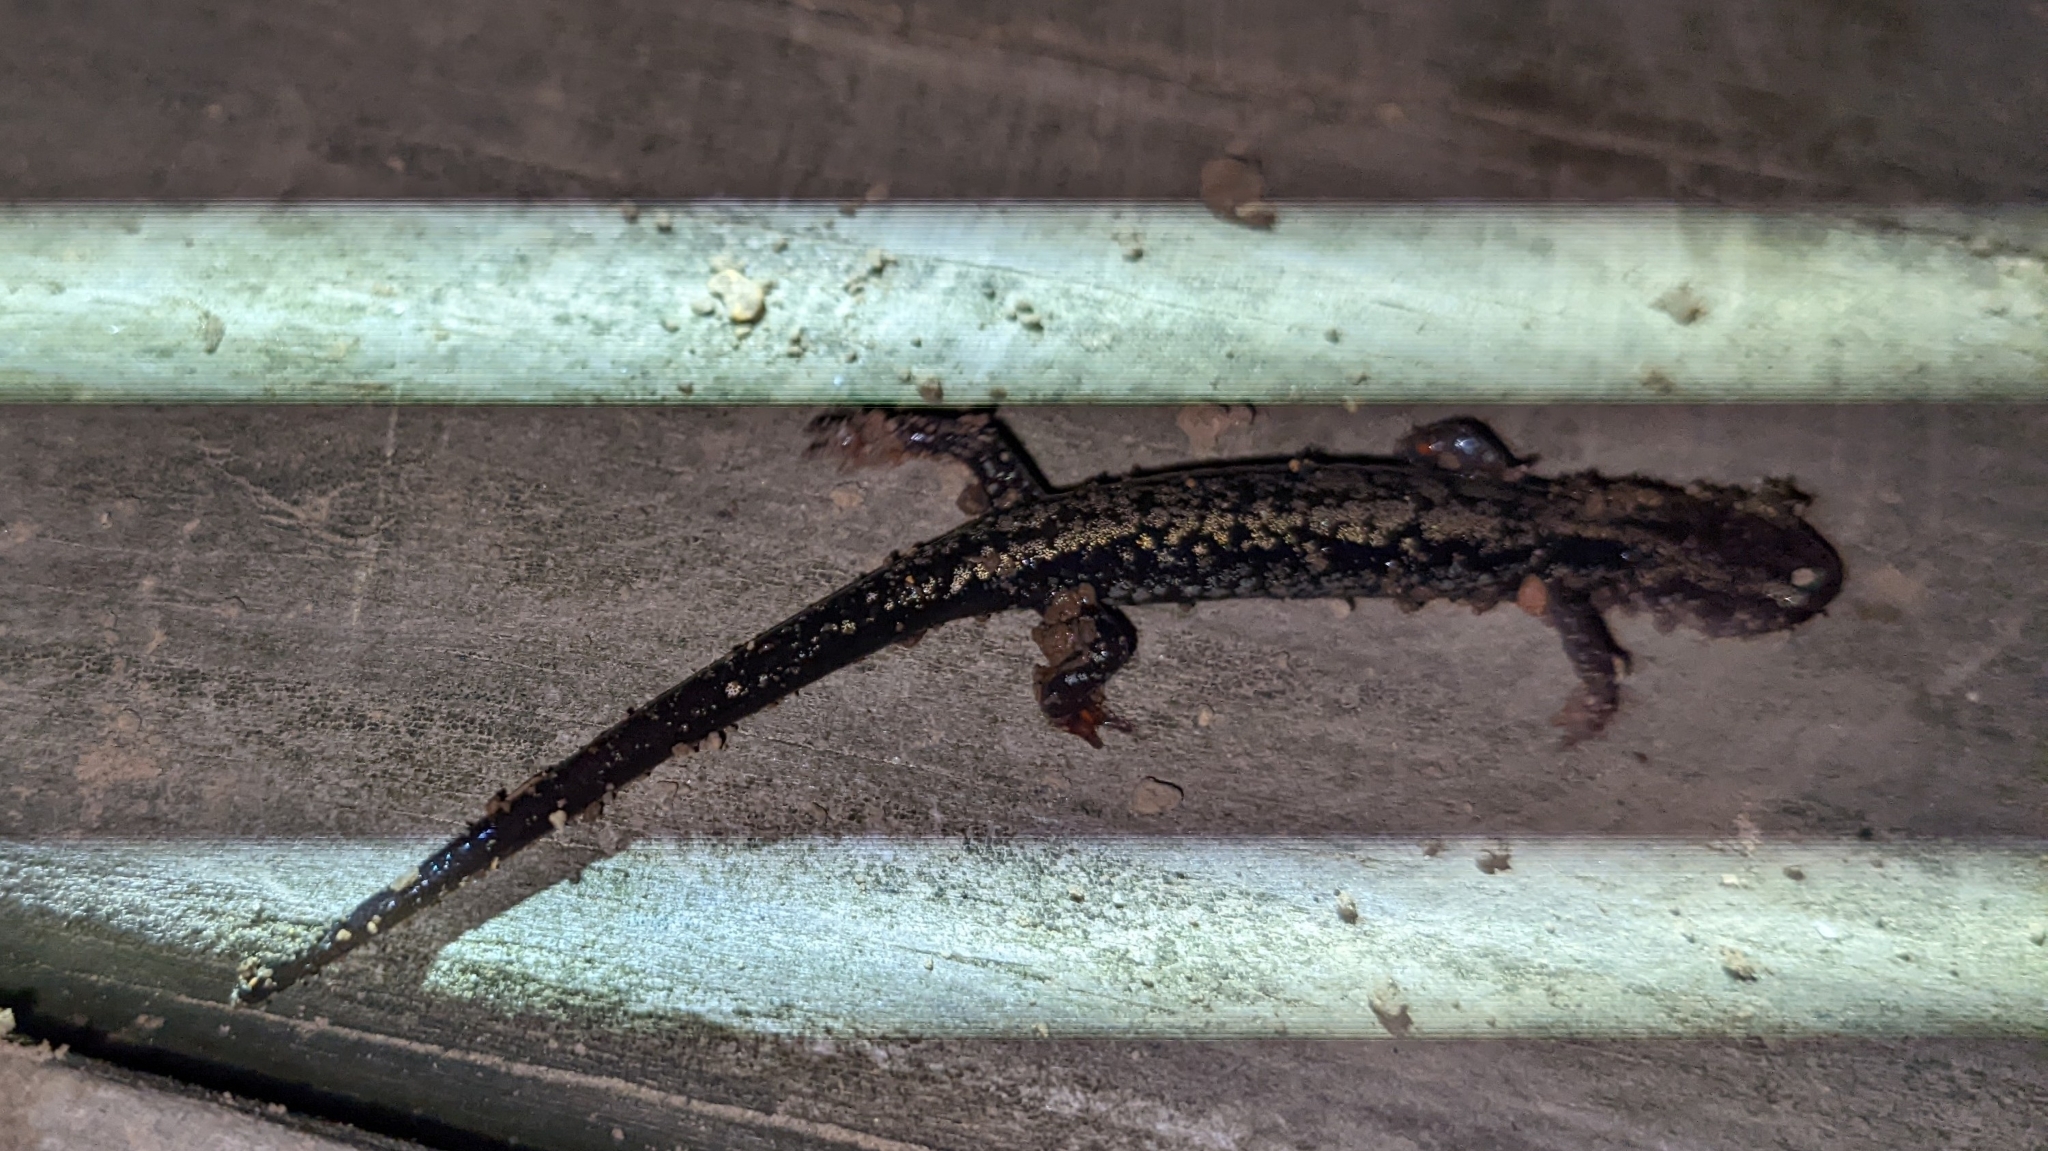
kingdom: Animalia
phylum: Chordata
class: Amphibia
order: Caudata
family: Plethodontidae
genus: Plethodon
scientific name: Plethodon ouachitae
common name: Rich mountain salamander
